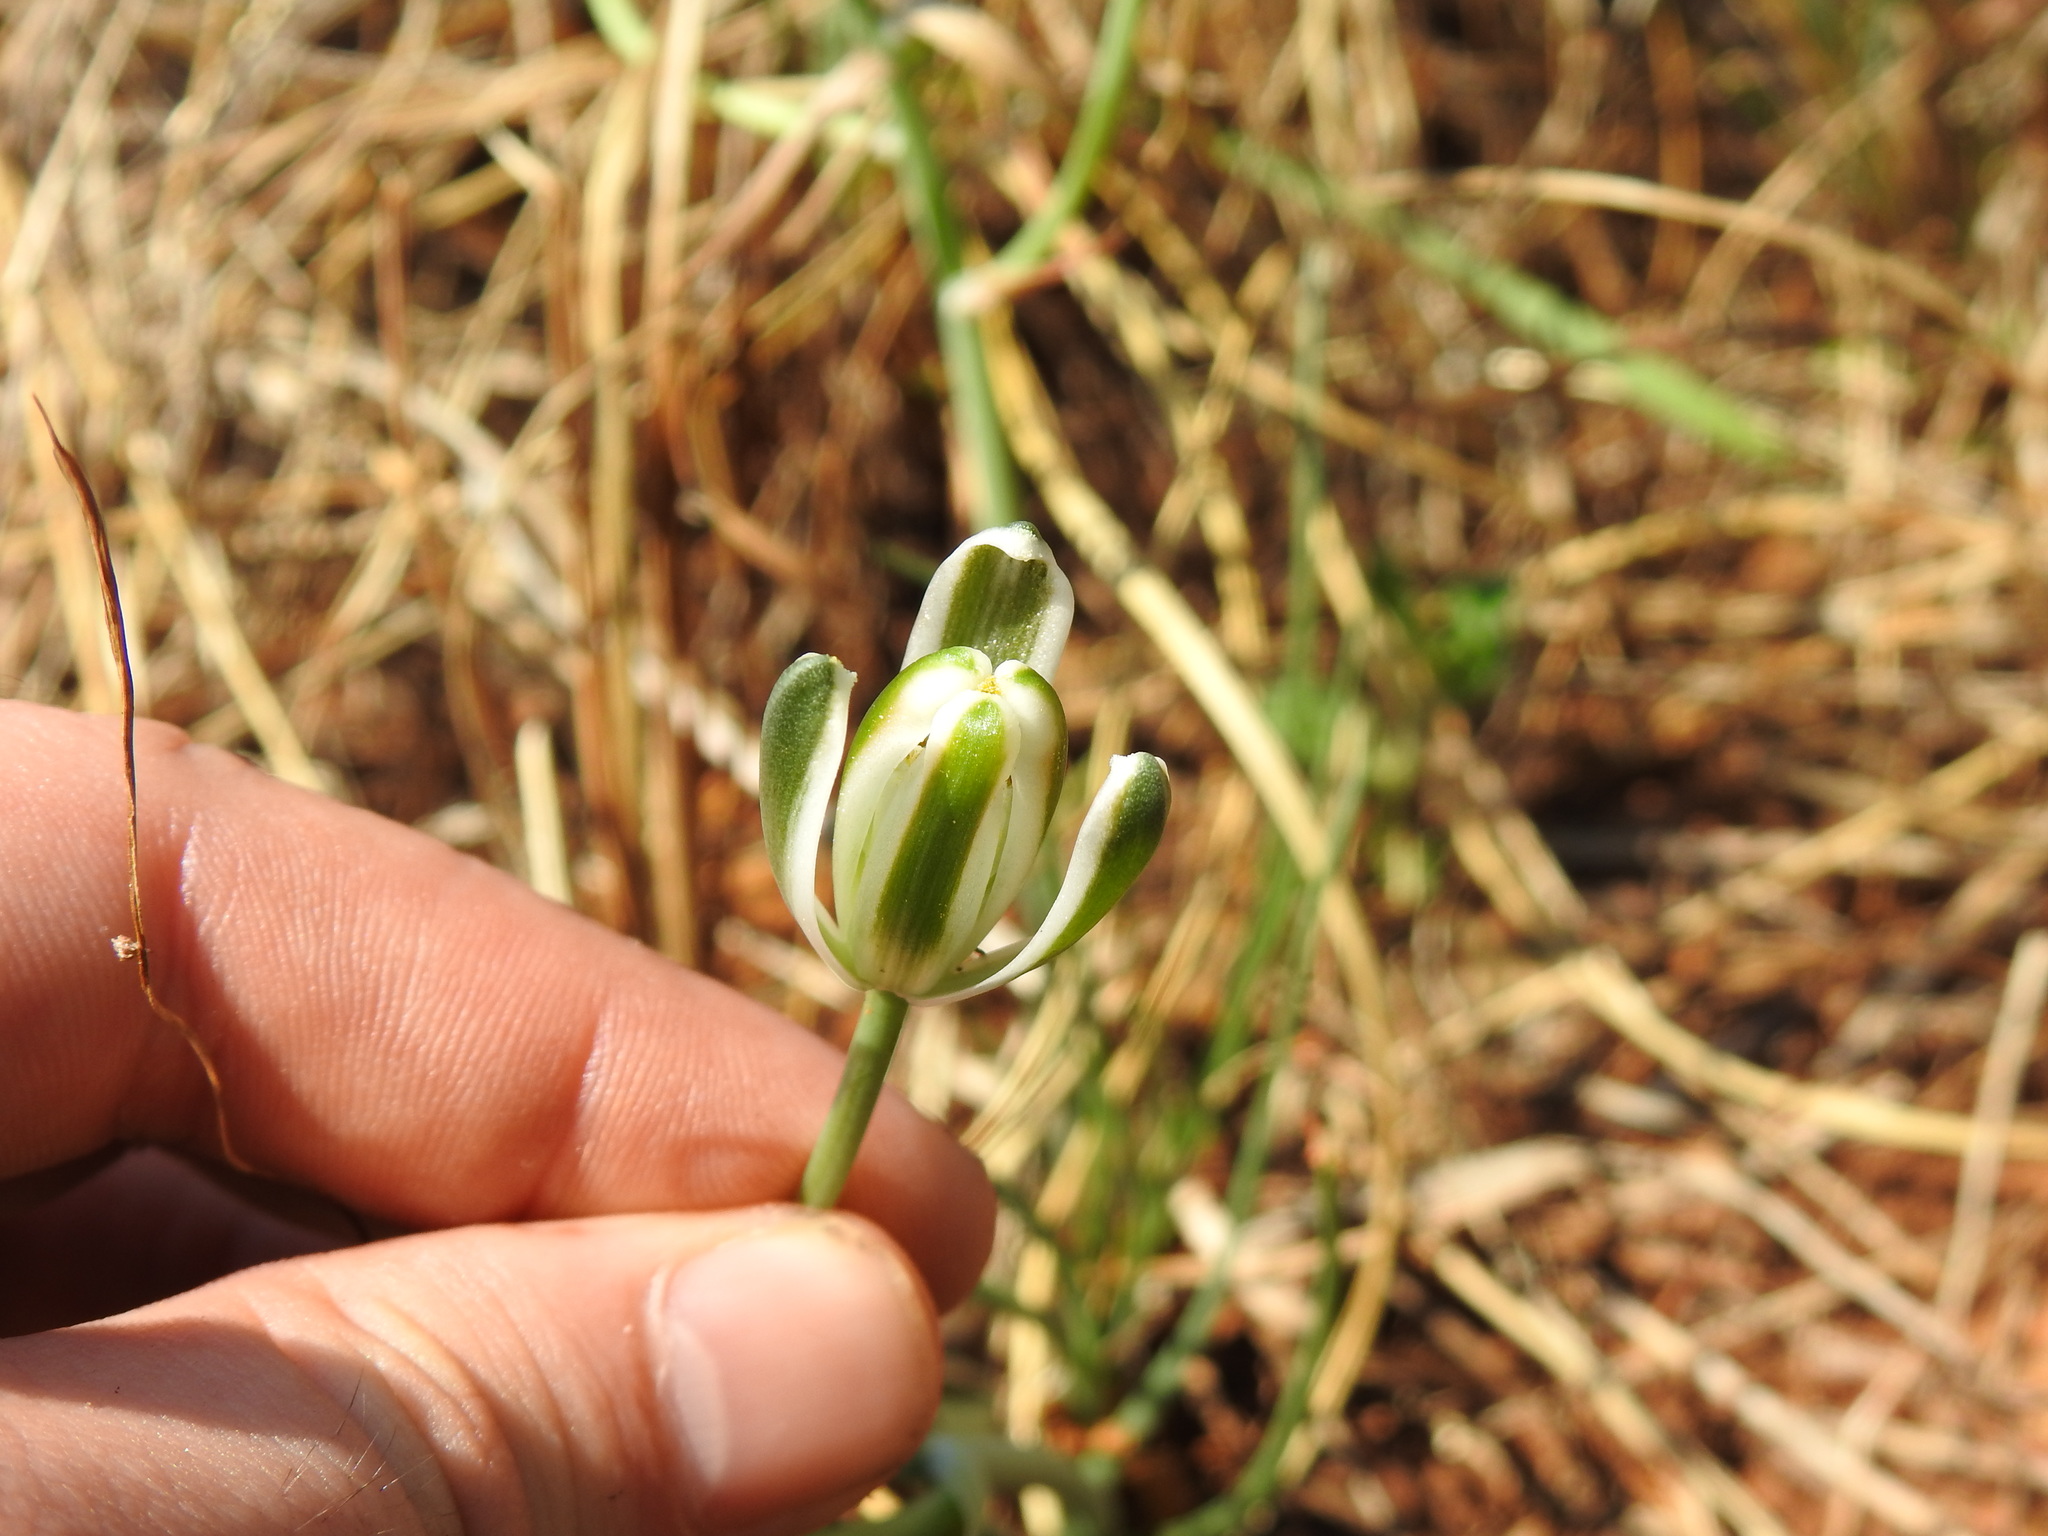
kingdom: Plantae
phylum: Tracheophyta
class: Liliopsida
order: Asparagales
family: Asparagaceae
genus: Albuca
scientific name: Albuca setosa
